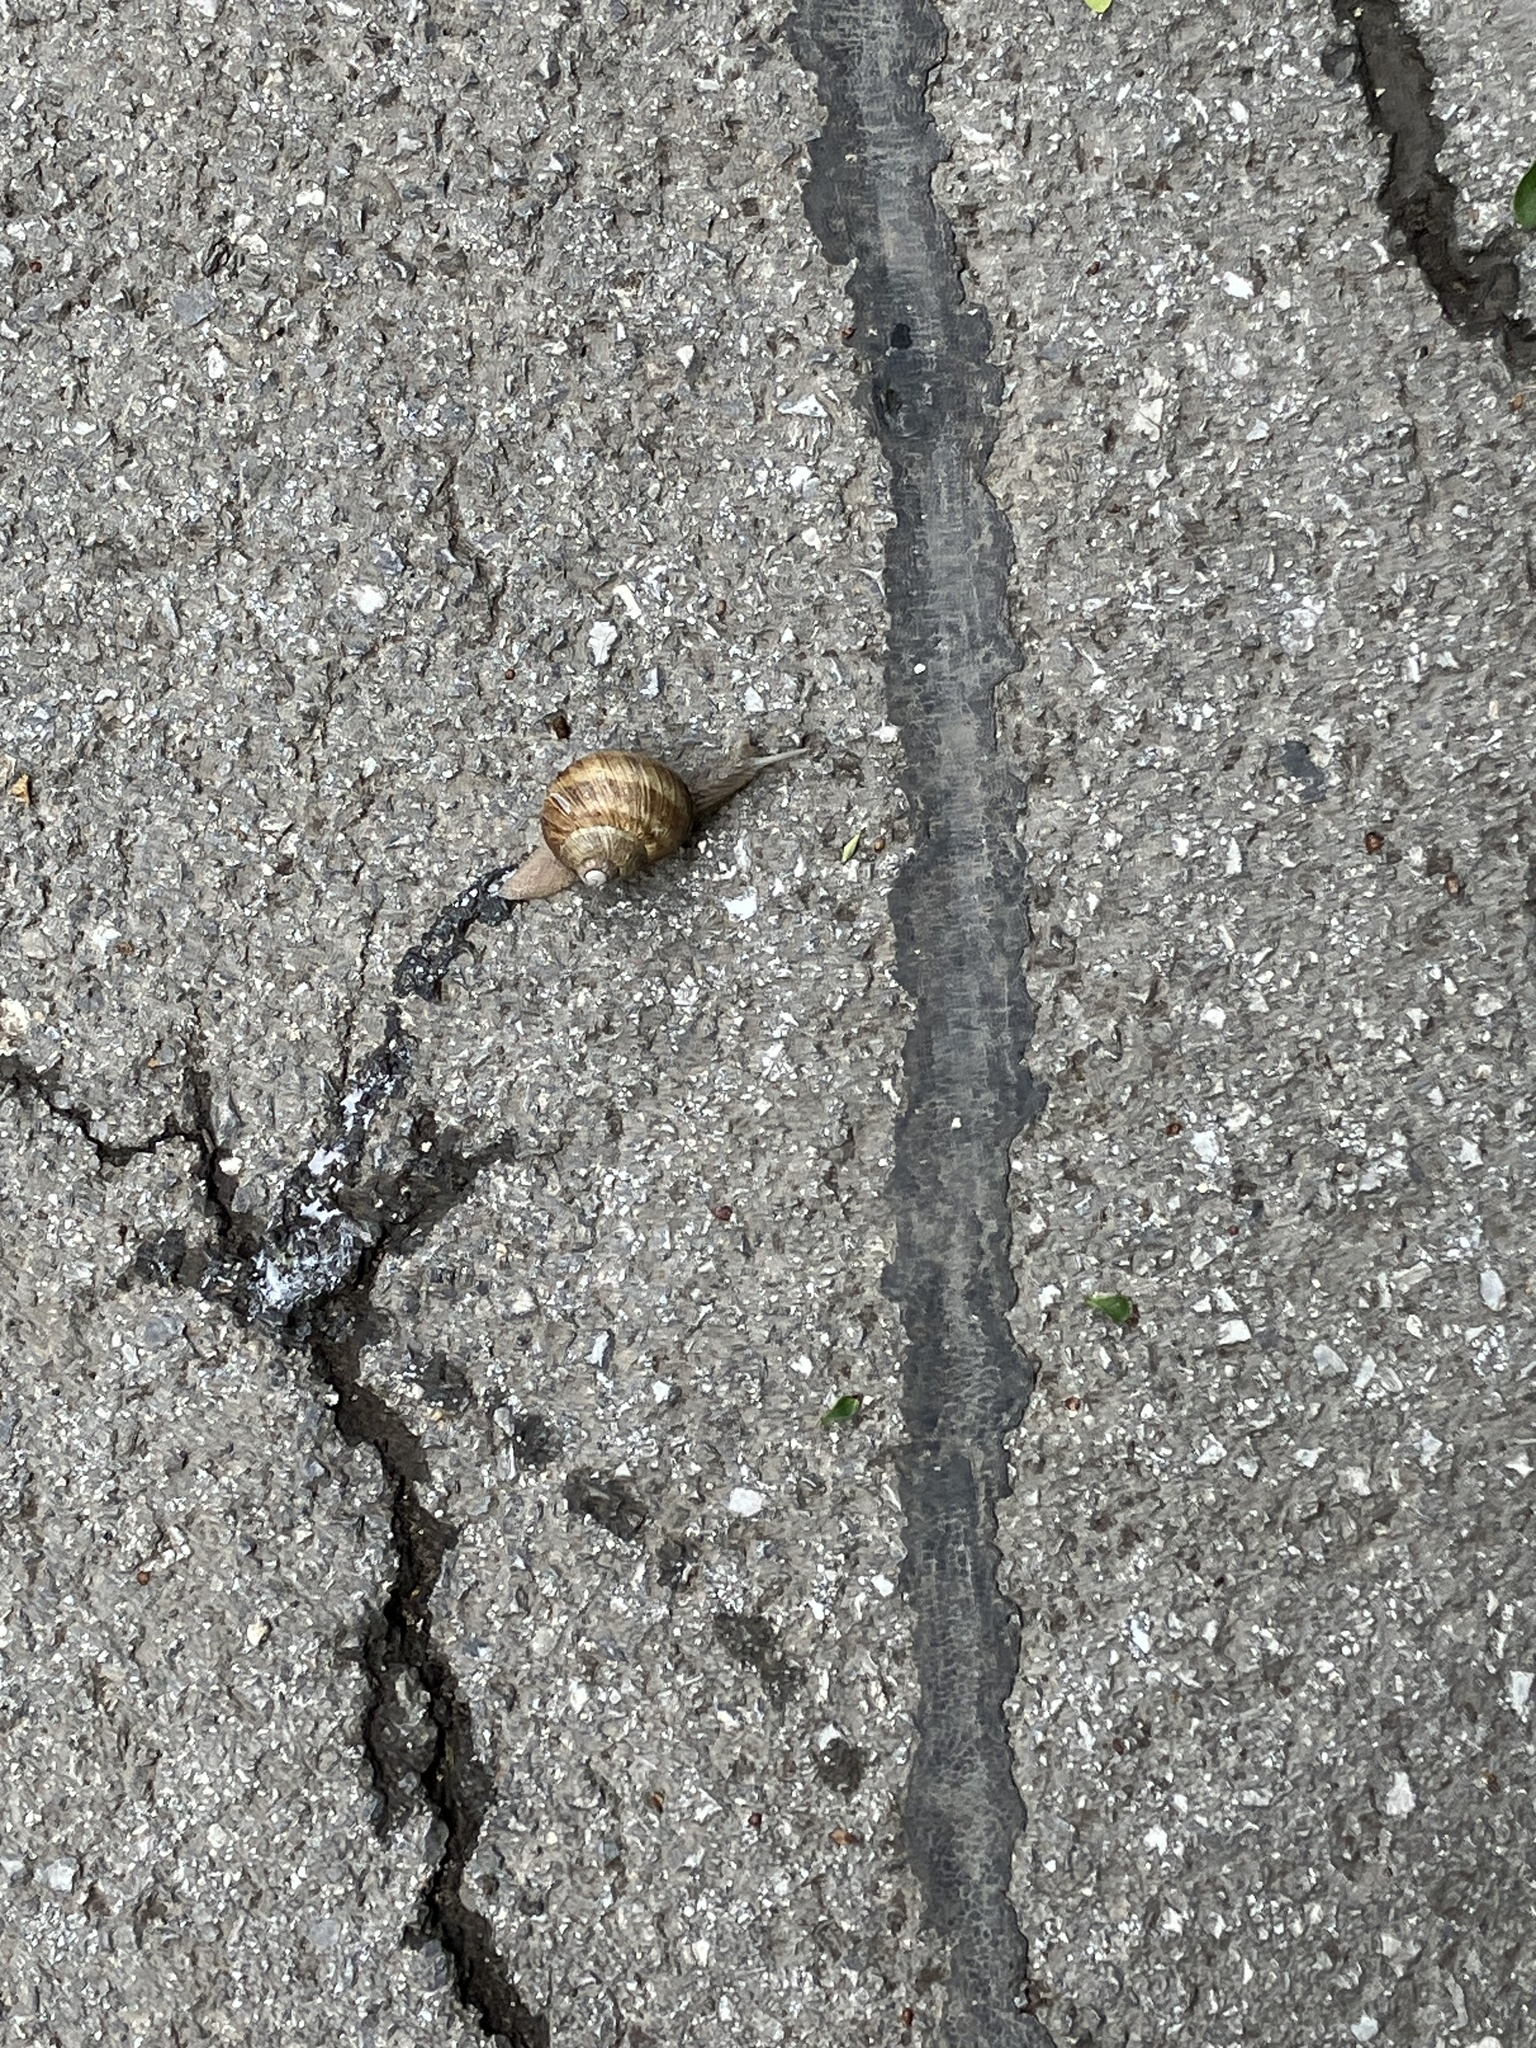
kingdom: Animalia
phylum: Mollusca
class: Gastropoda
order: Stylommatophora
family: Helicidae
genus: Helix
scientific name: Helix pomatia
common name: Roman snail
